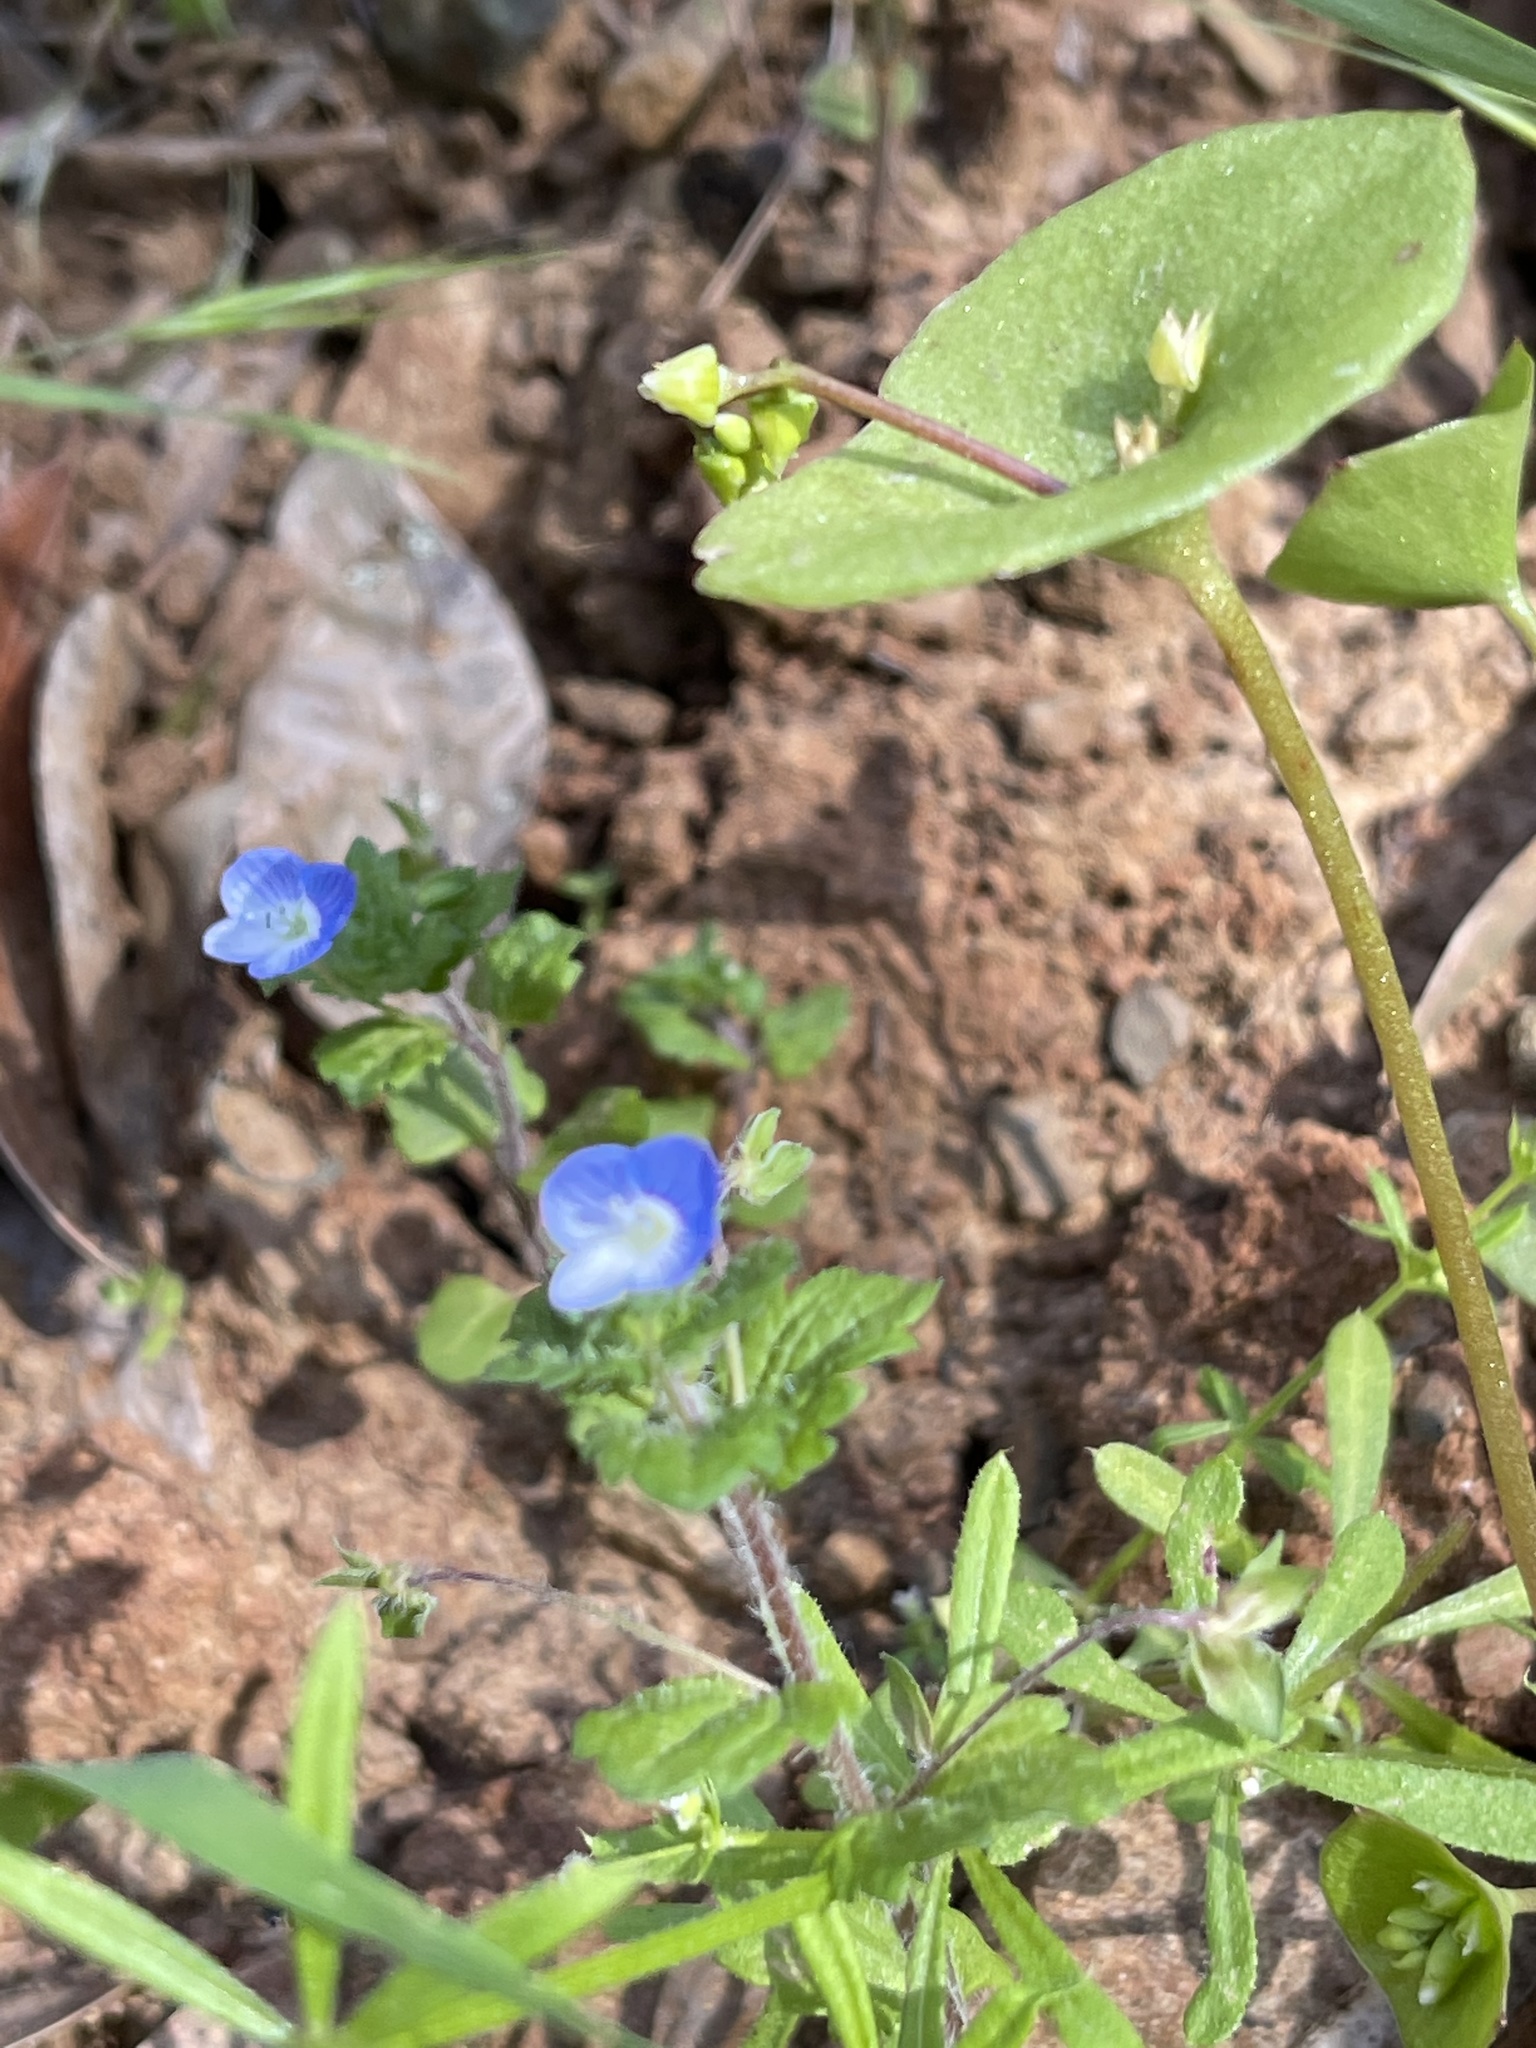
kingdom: Plantae
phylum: Tracheophyta
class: Magnoliopsida
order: Lamiales
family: Plantaginaceae
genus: Veronica
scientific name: Veronica persica
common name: Common field-speedwell
